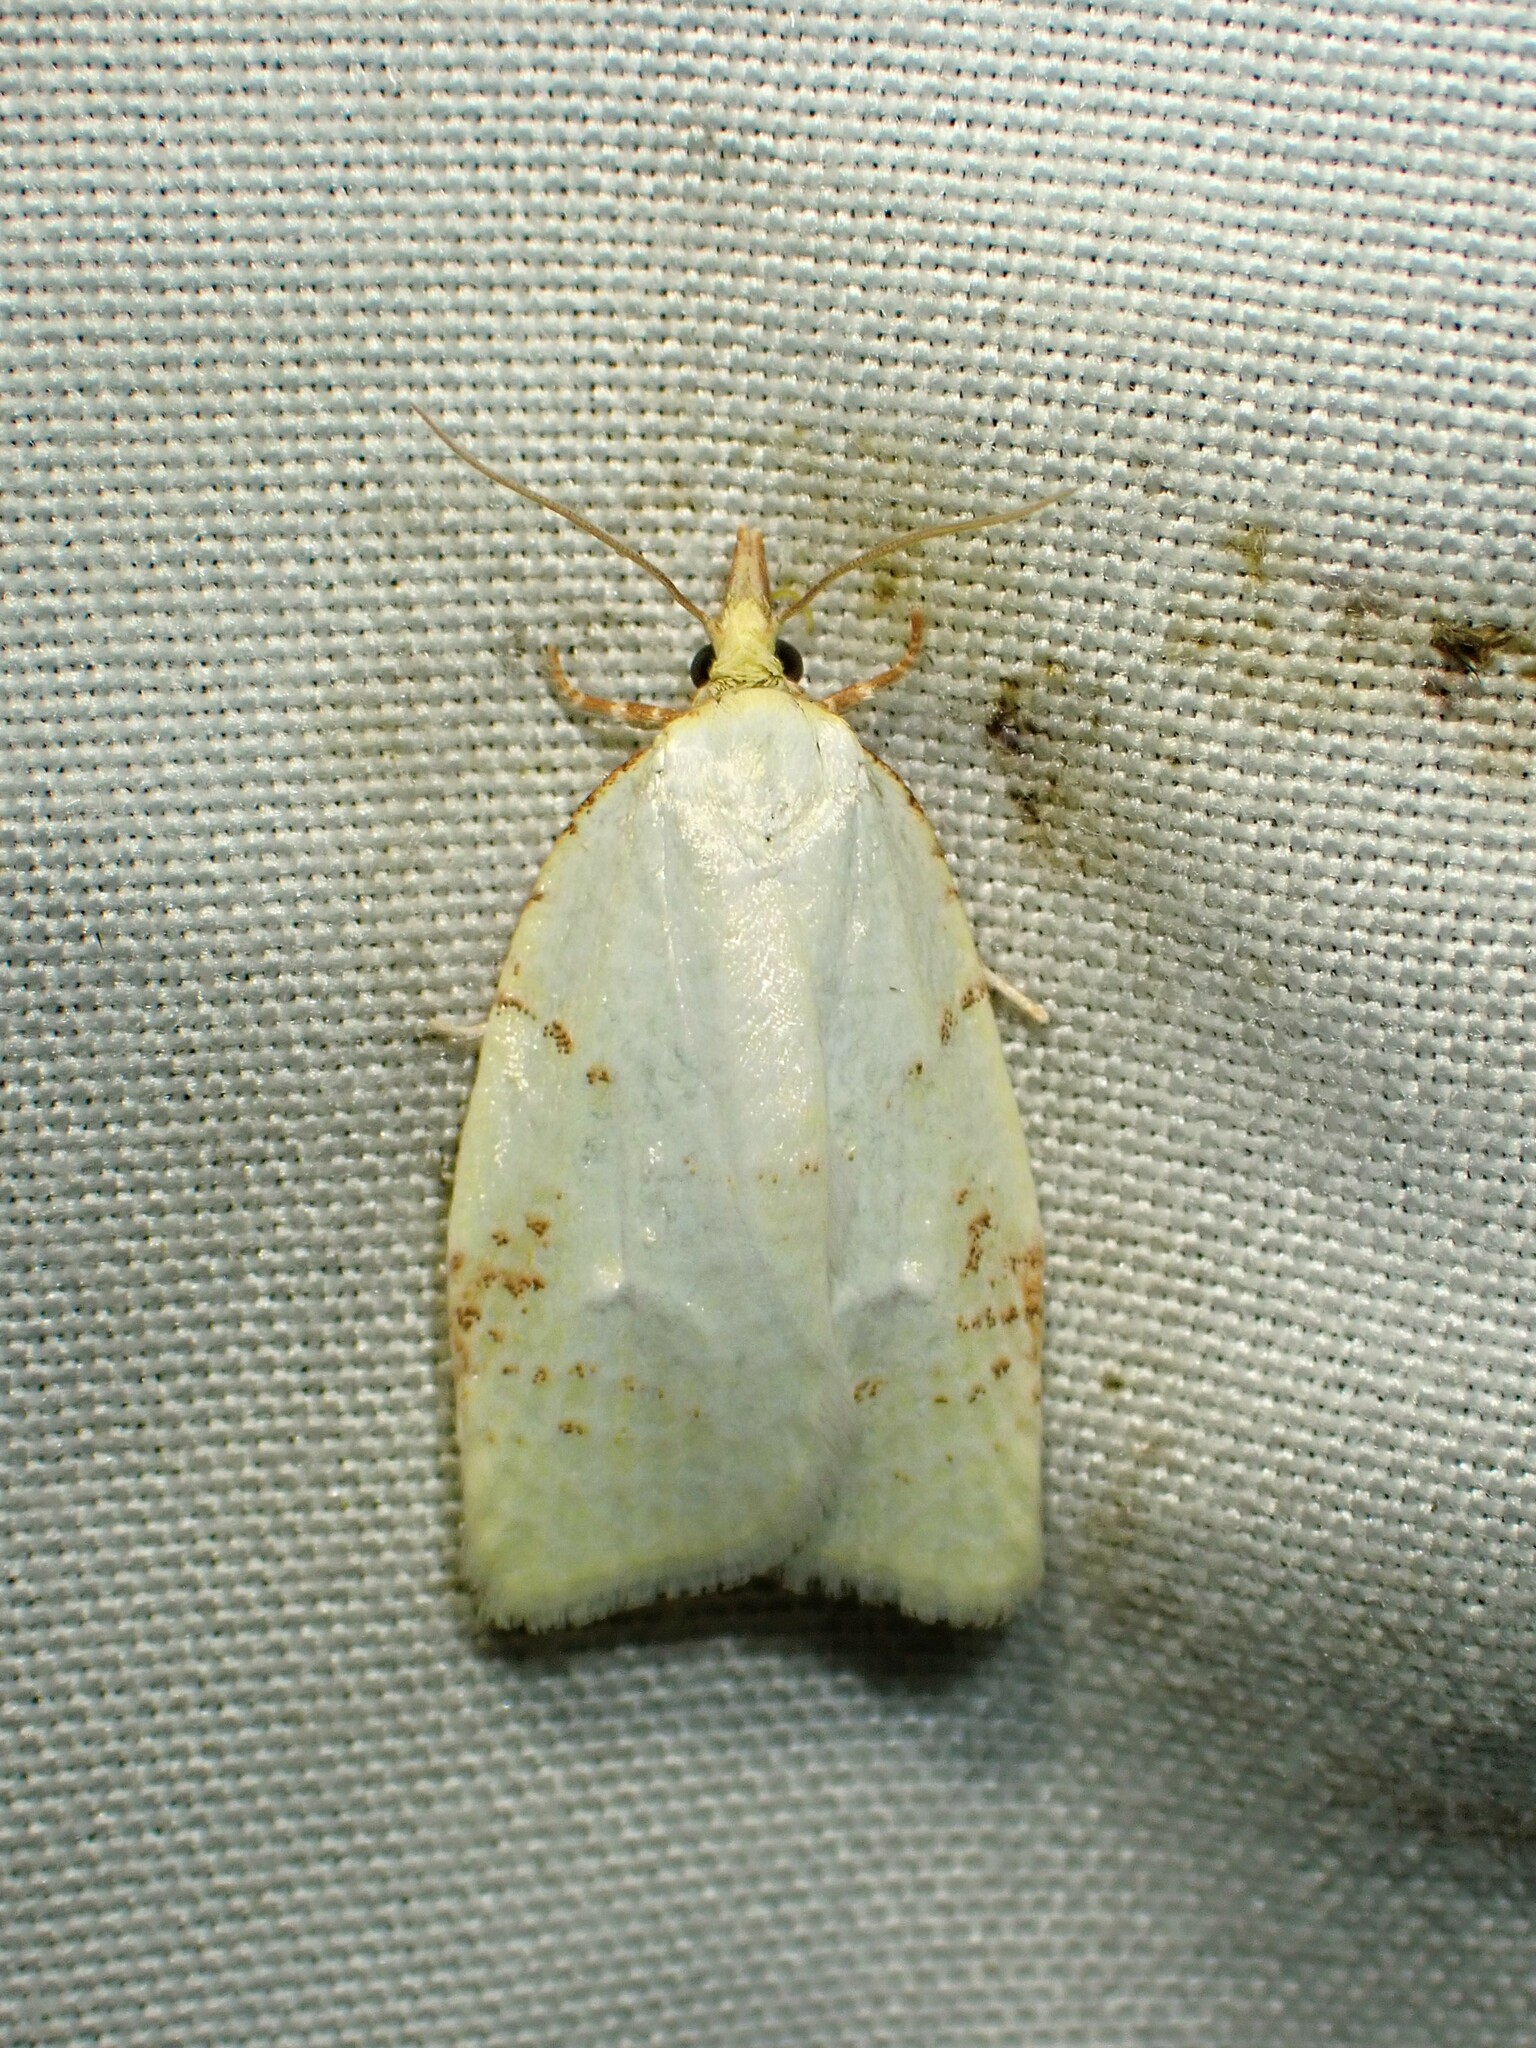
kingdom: Animalia
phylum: Arthropoda
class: Insecta
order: Lepidoptera
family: Tortricidae
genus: Cenopis
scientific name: Cenopis pettitana
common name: Maple-basswood leafroller moth
